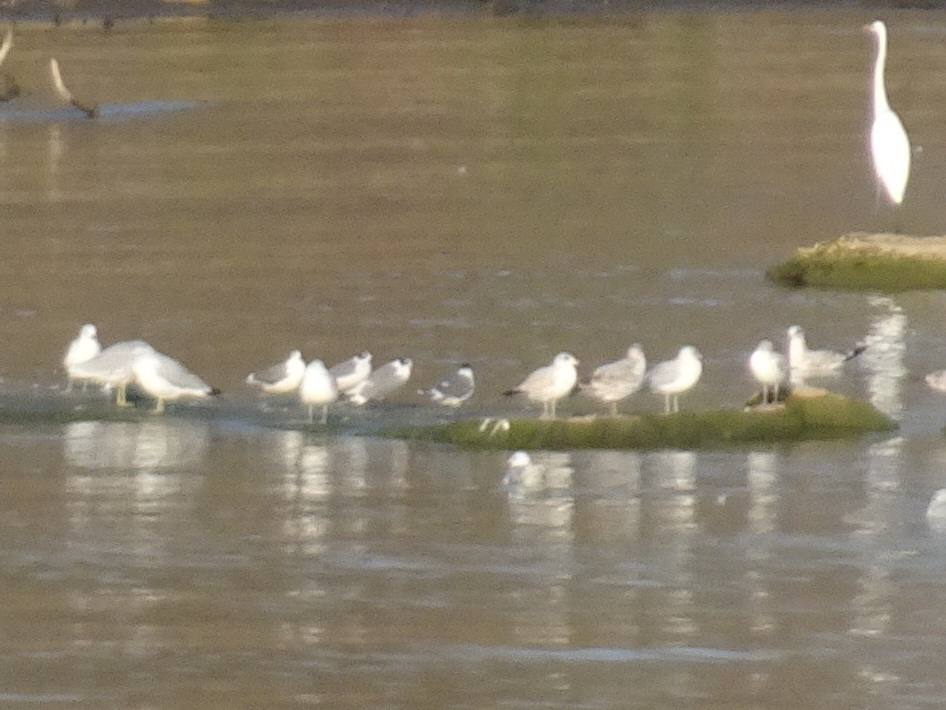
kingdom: Animalia
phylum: Chordata
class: Aves
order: Charadriiformes
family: Laridae
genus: Leucophaeus
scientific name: Leucophaeus pipixcan
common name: Franklin's gull
